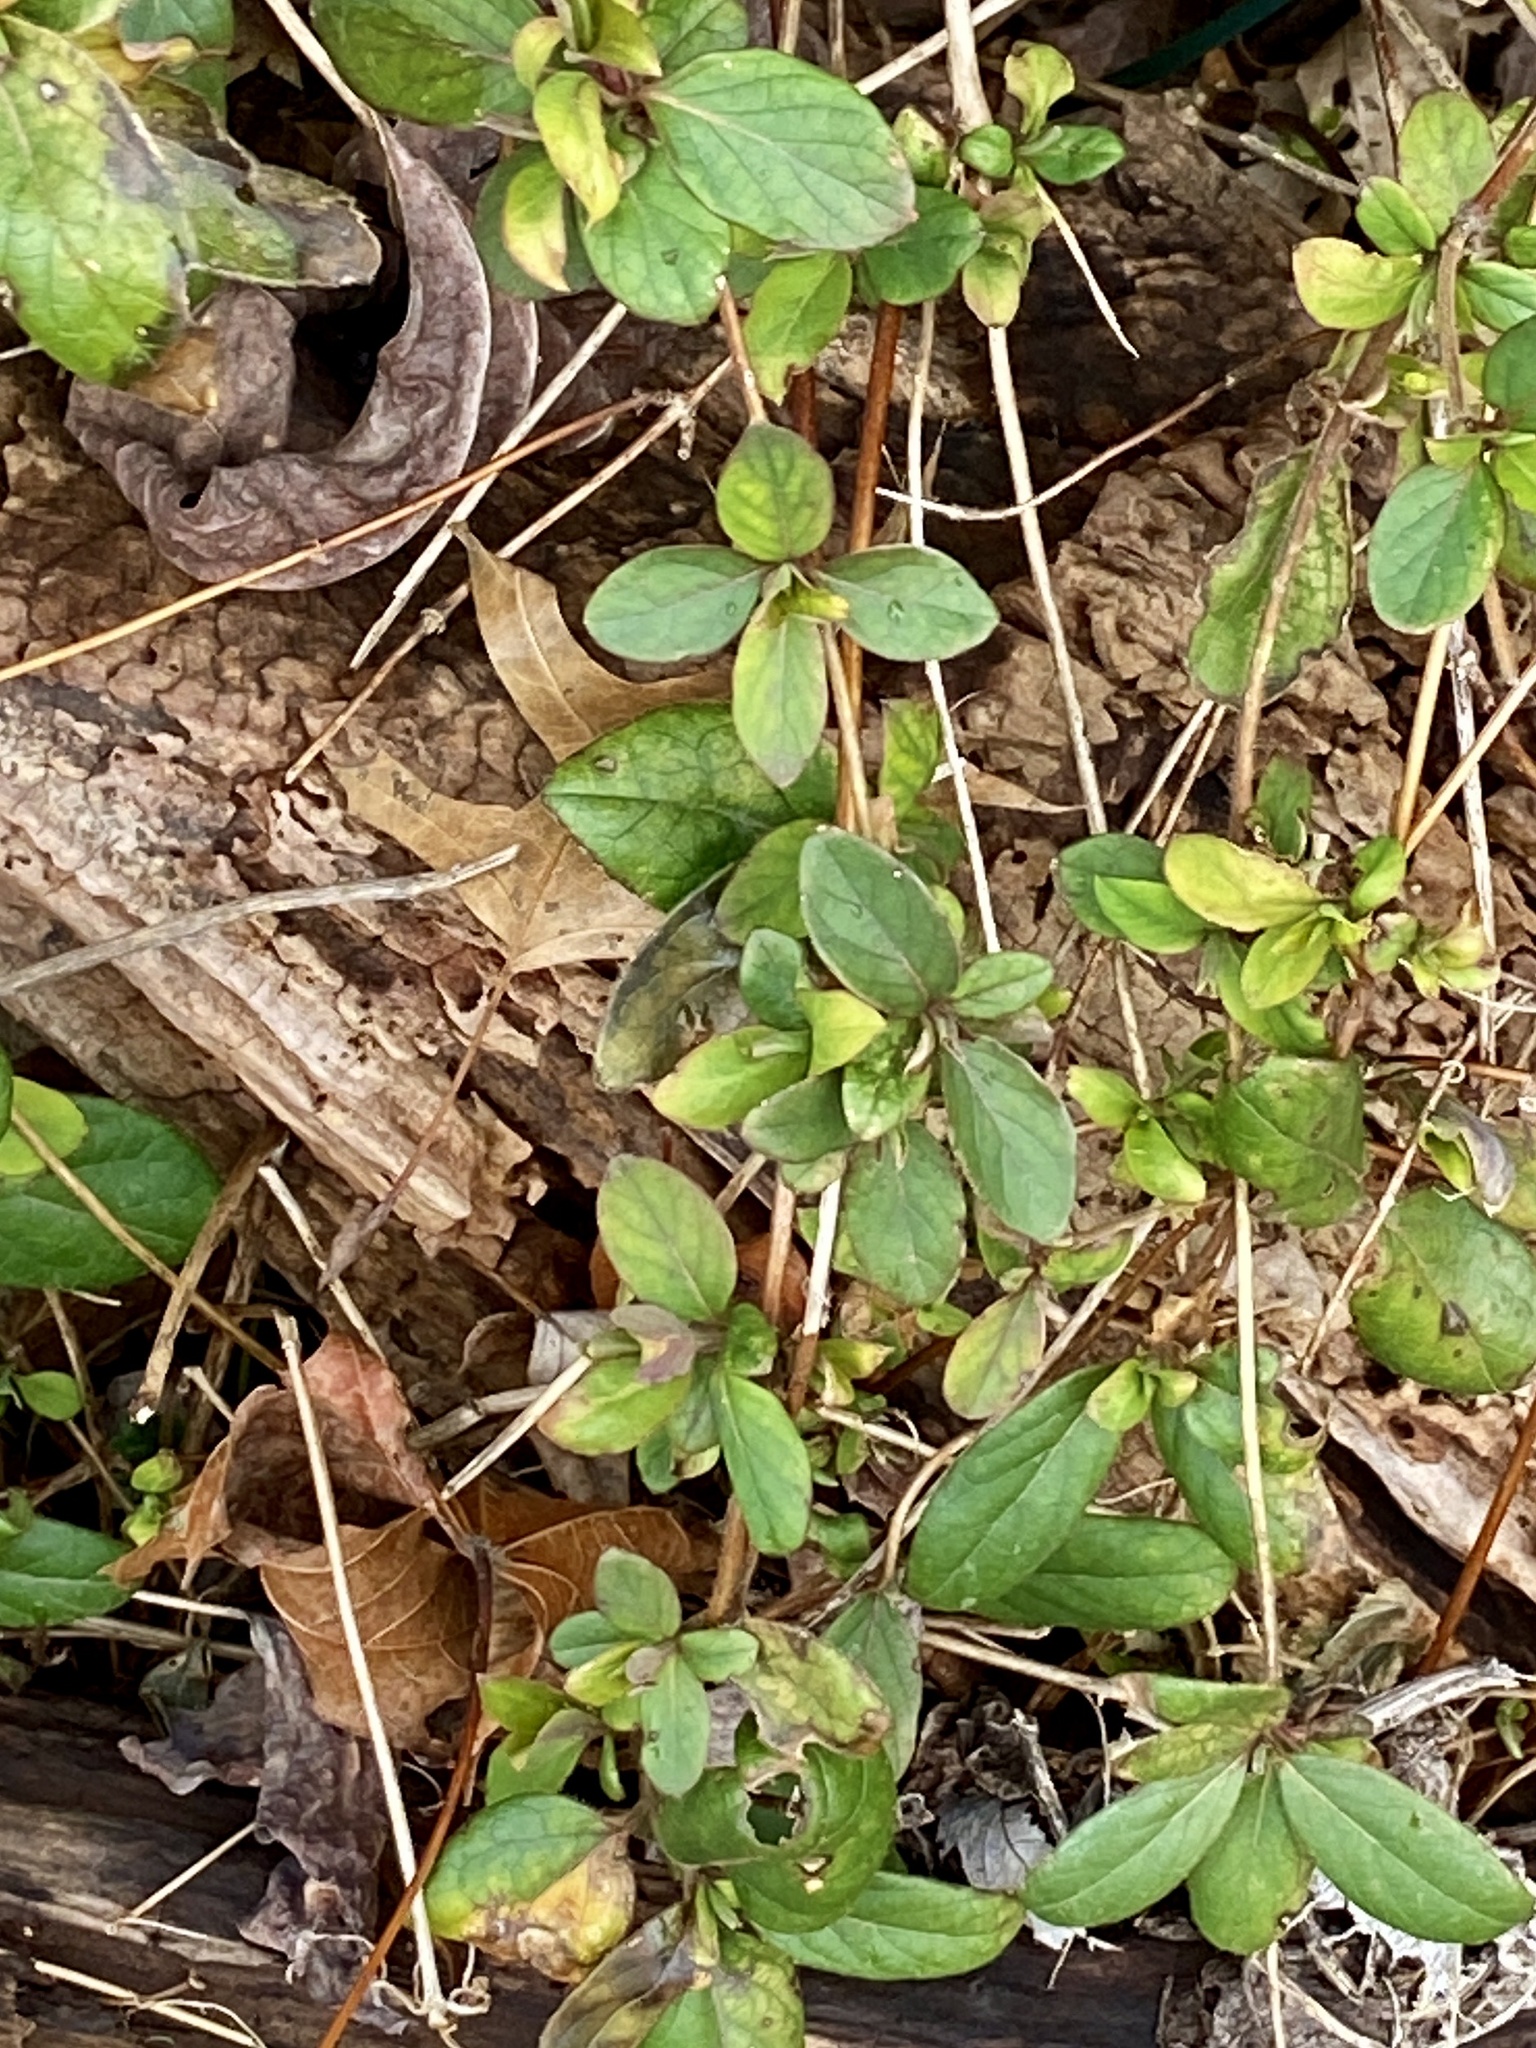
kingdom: Plantae
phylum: Tracheophyta
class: Magnoliopsida
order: Dipsacales
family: Caprifoliaceae
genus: Lonicera
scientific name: Lonicera japonica
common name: Japanese honeysuckle
